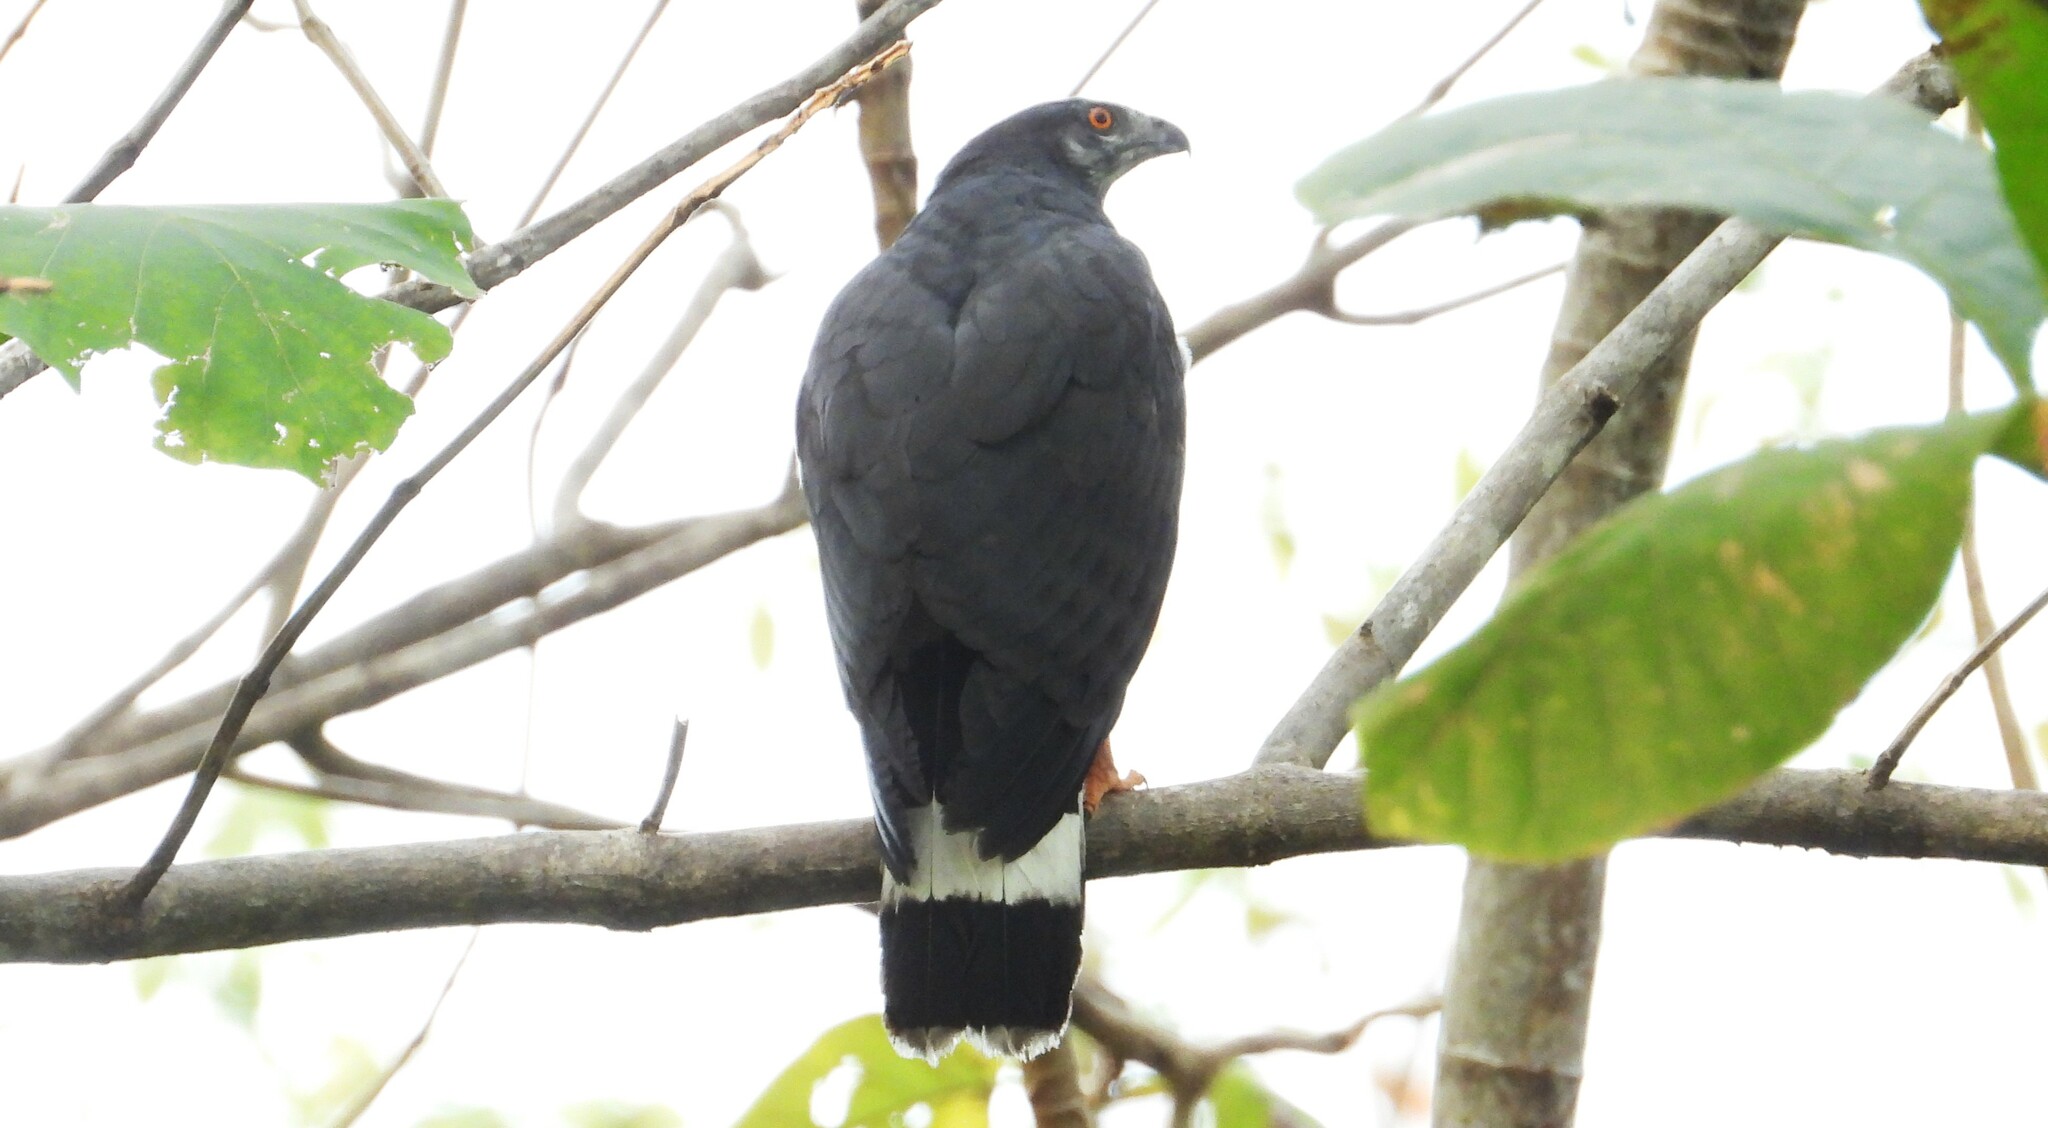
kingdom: Animalia
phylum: Chordata
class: Aves
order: Accipitriformes
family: Accipitridae
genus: Geranospiza
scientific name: Geranospiza caerulescens
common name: Crane hawk
